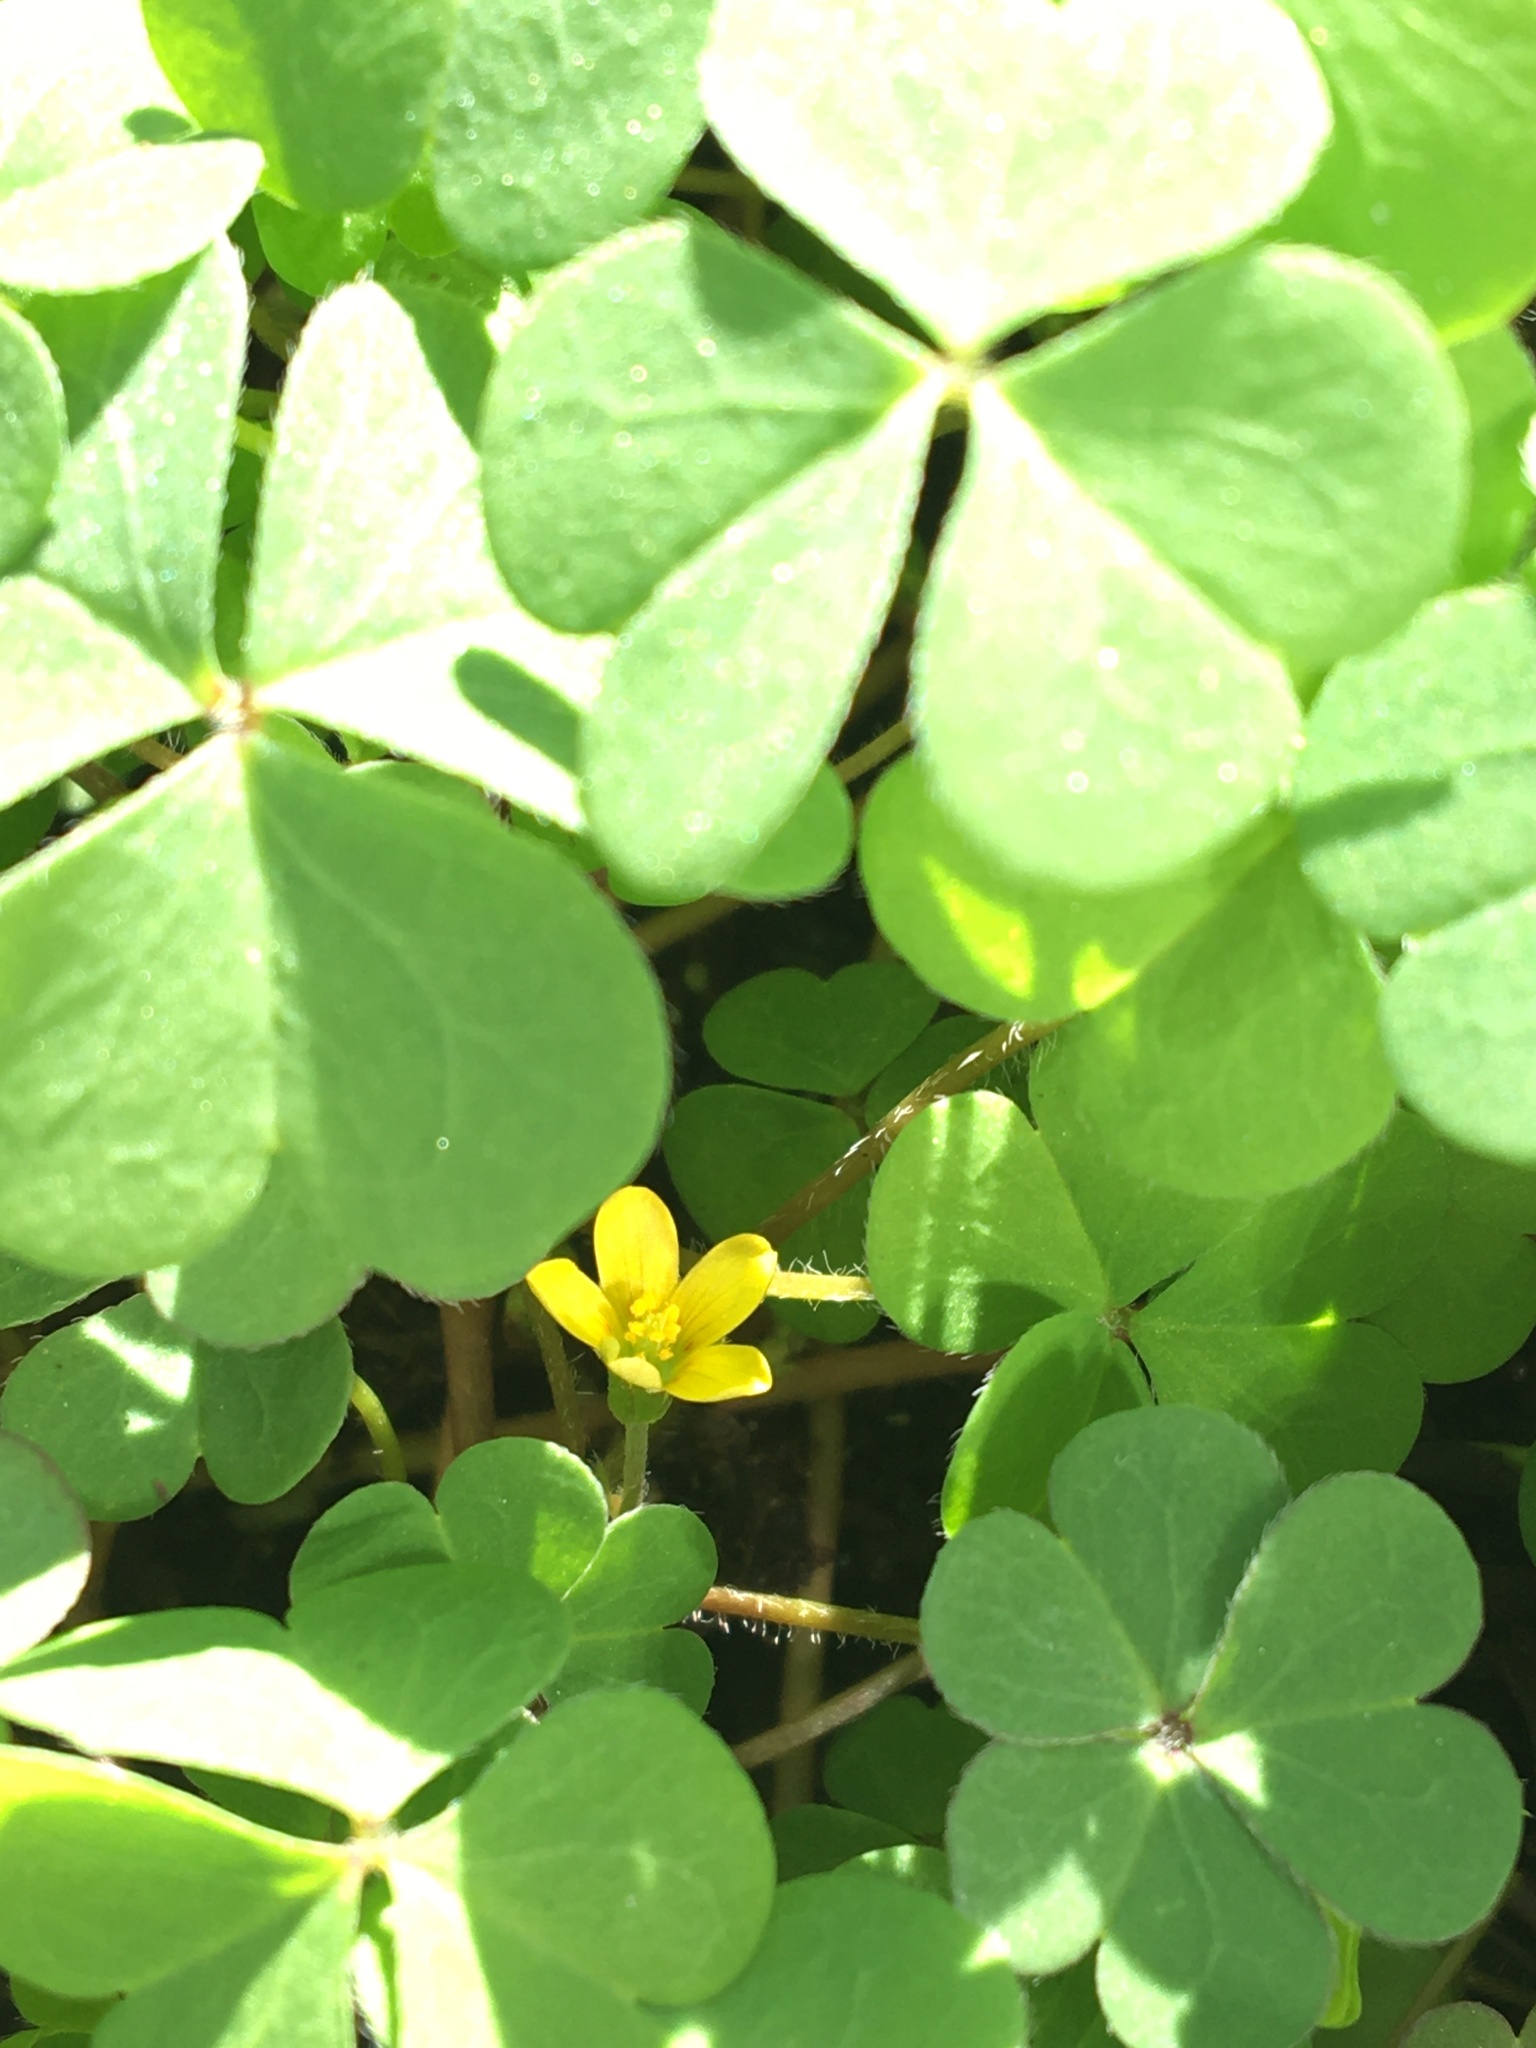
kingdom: Plantae
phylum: Tracheophyta
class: Magnoliopsida
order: Oxalidales
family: Oxalidaceae
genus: Oxalis
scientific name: Oxalis corniculata
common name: Procumbent yellow-sorrel
